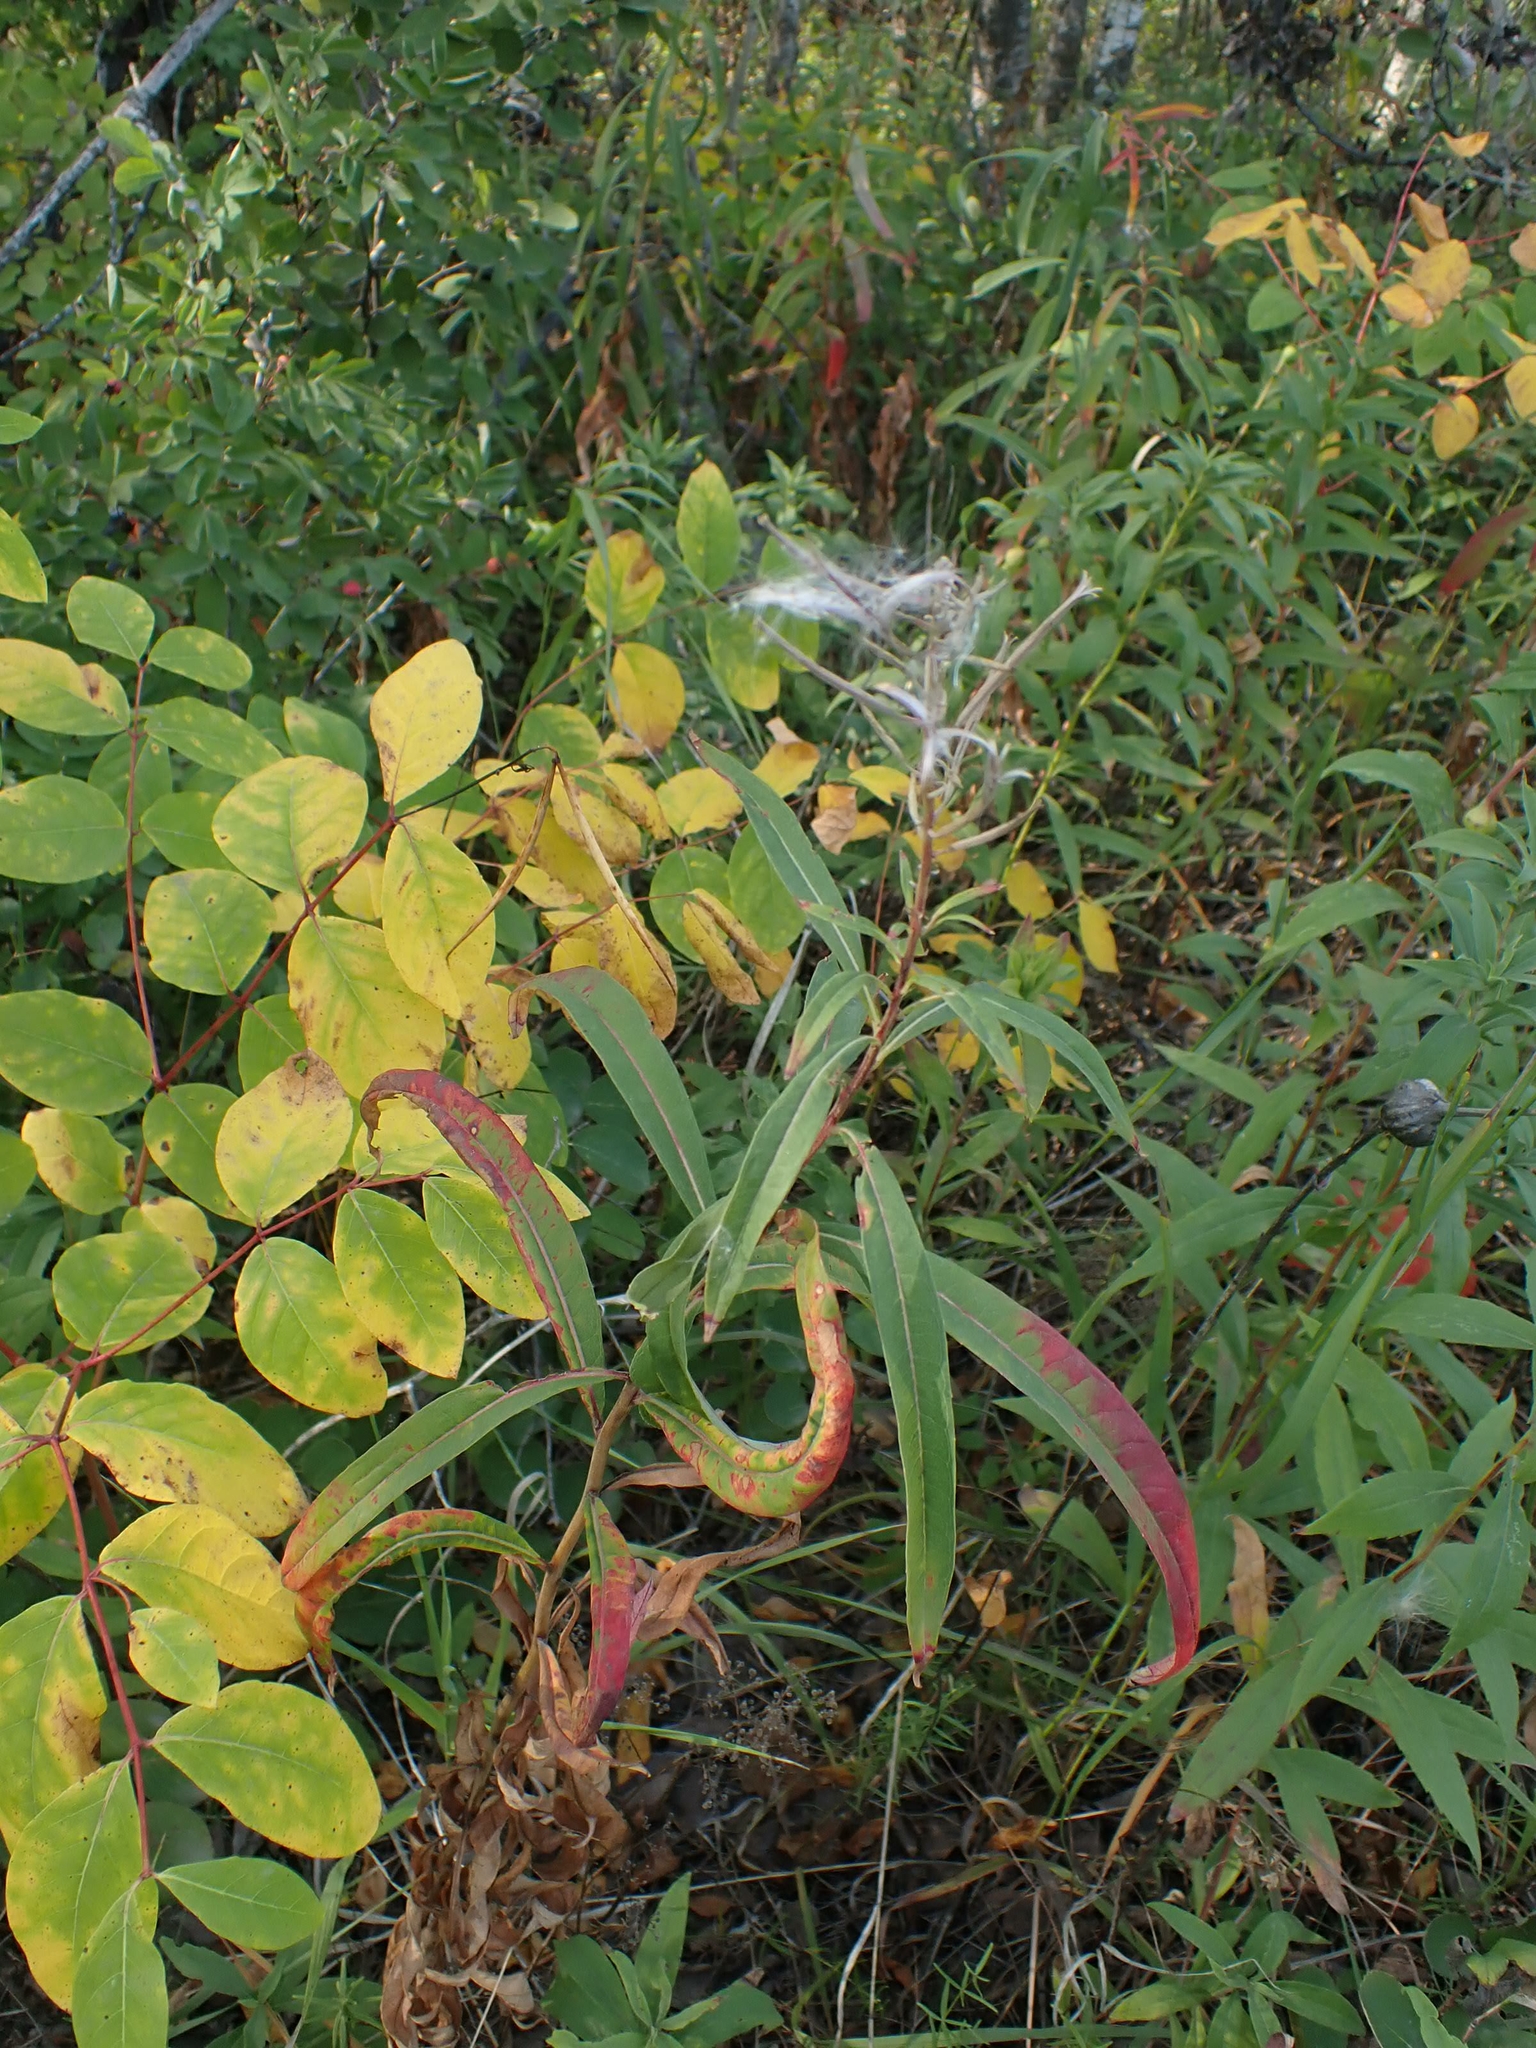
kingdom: Plantae
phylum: Tracheophyta
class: Magnoliopsida
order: Myrtales
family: Onagraceae
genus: Chamaenerion
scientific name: Chamaenerion angustifolium
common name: Fireweed
